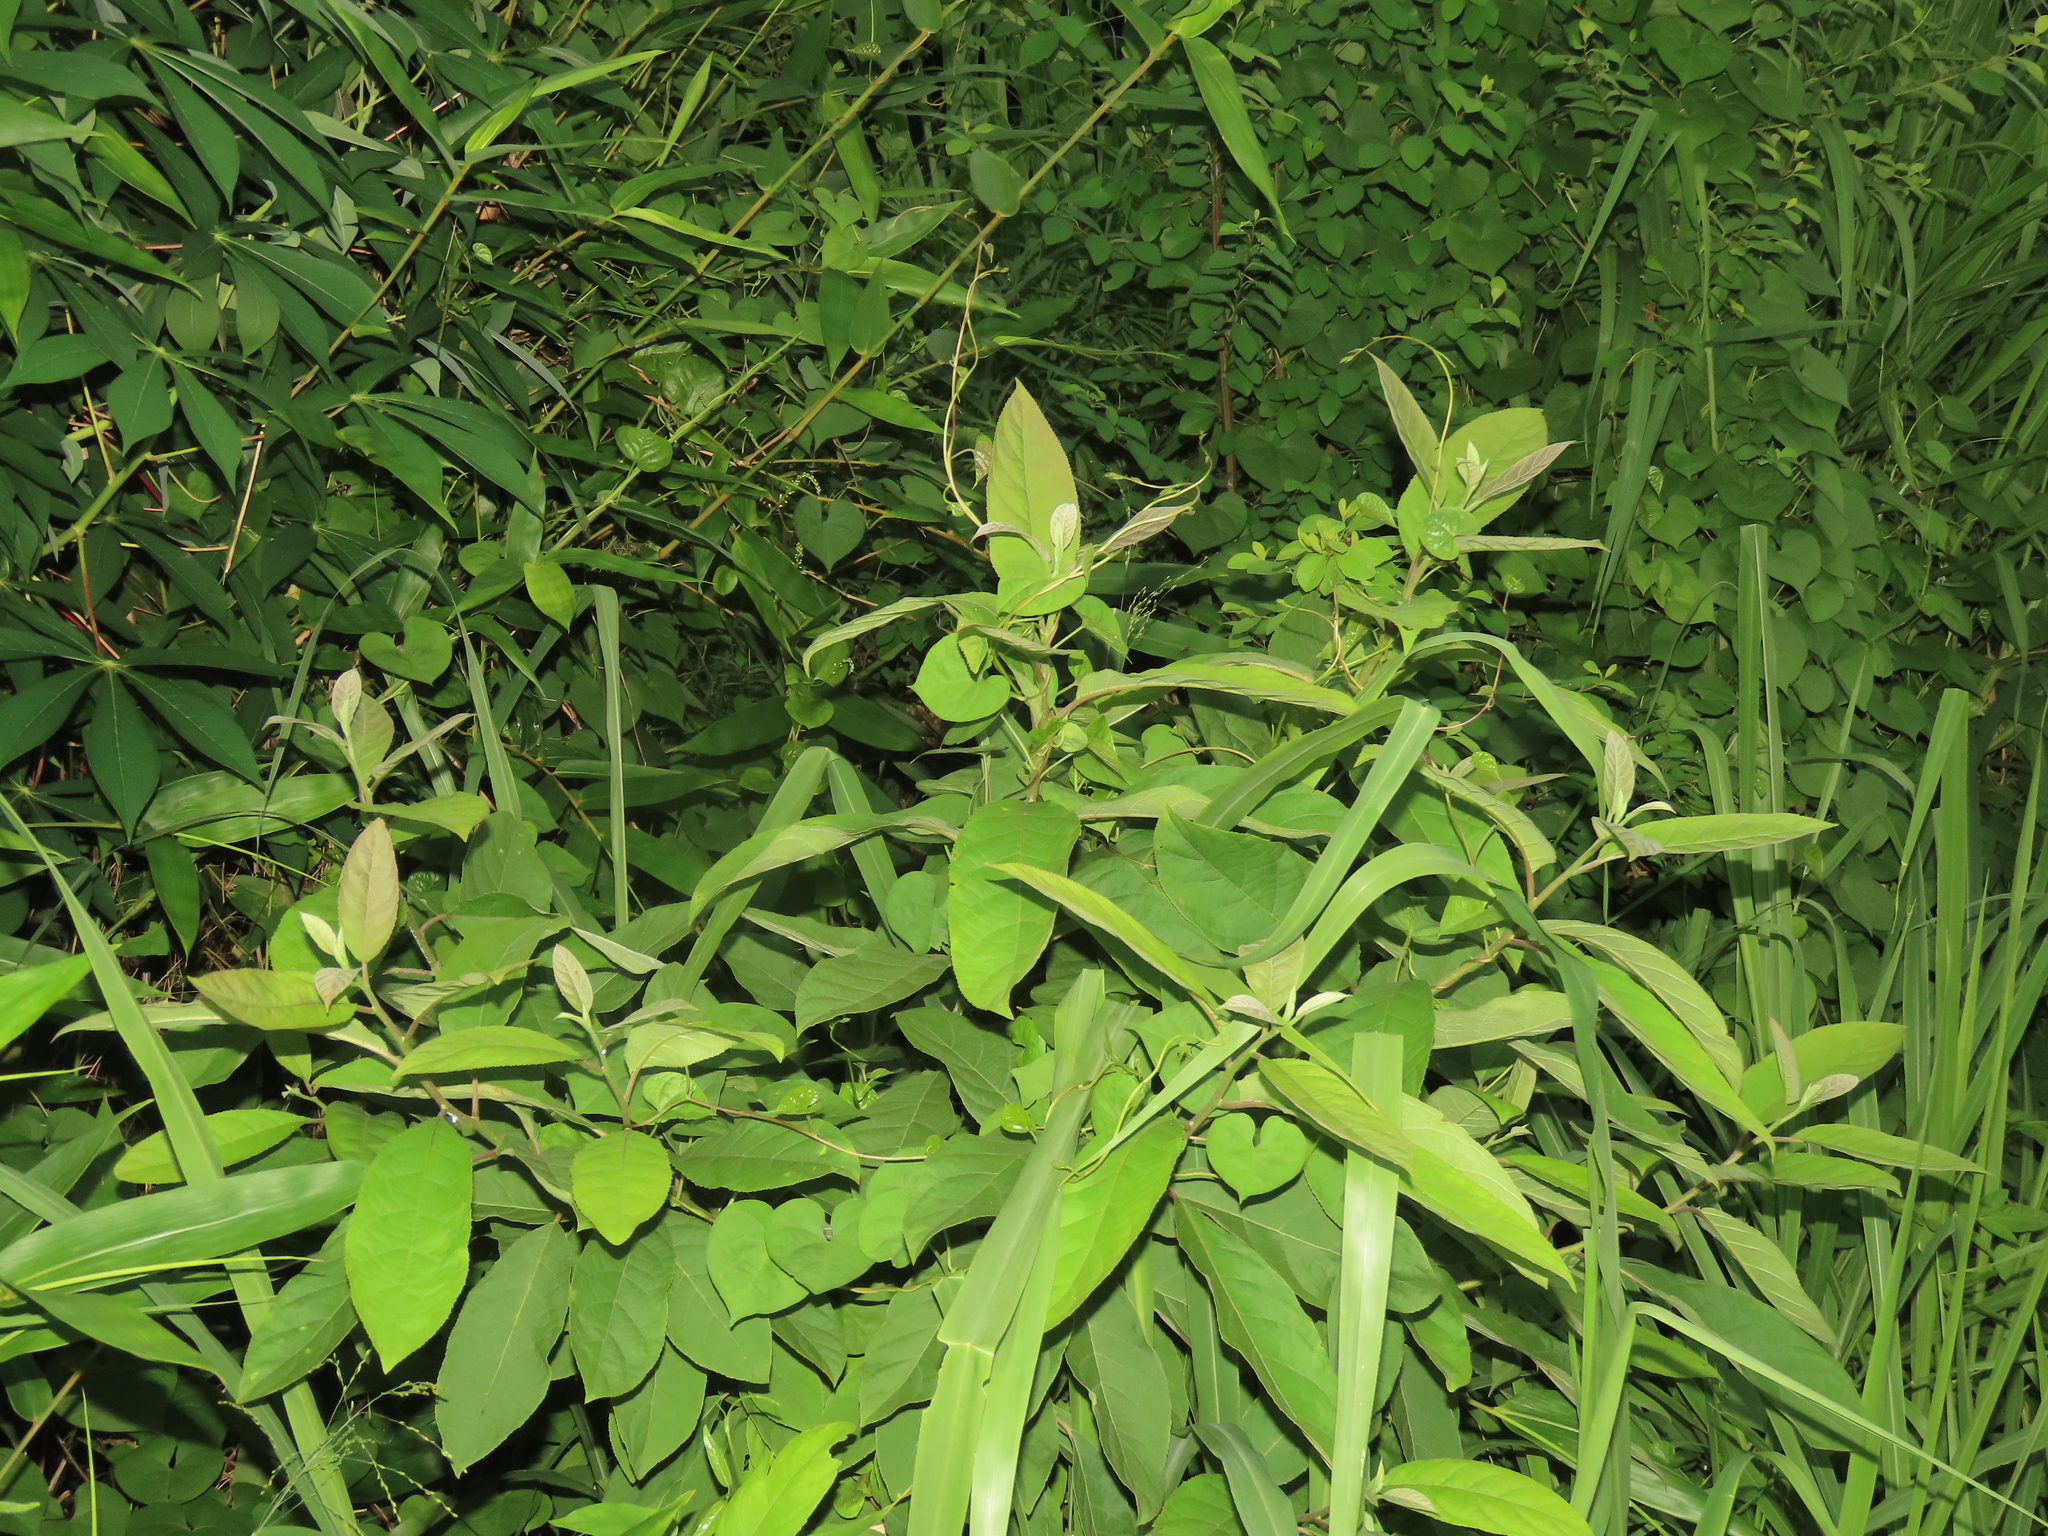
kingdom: Plantae
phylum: Tracheophyta
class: Magnoliopsida
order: Boraginales
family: Ehretiaceae
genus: Ehretia
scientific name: Ehretia acuminata
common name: Kodo wood
